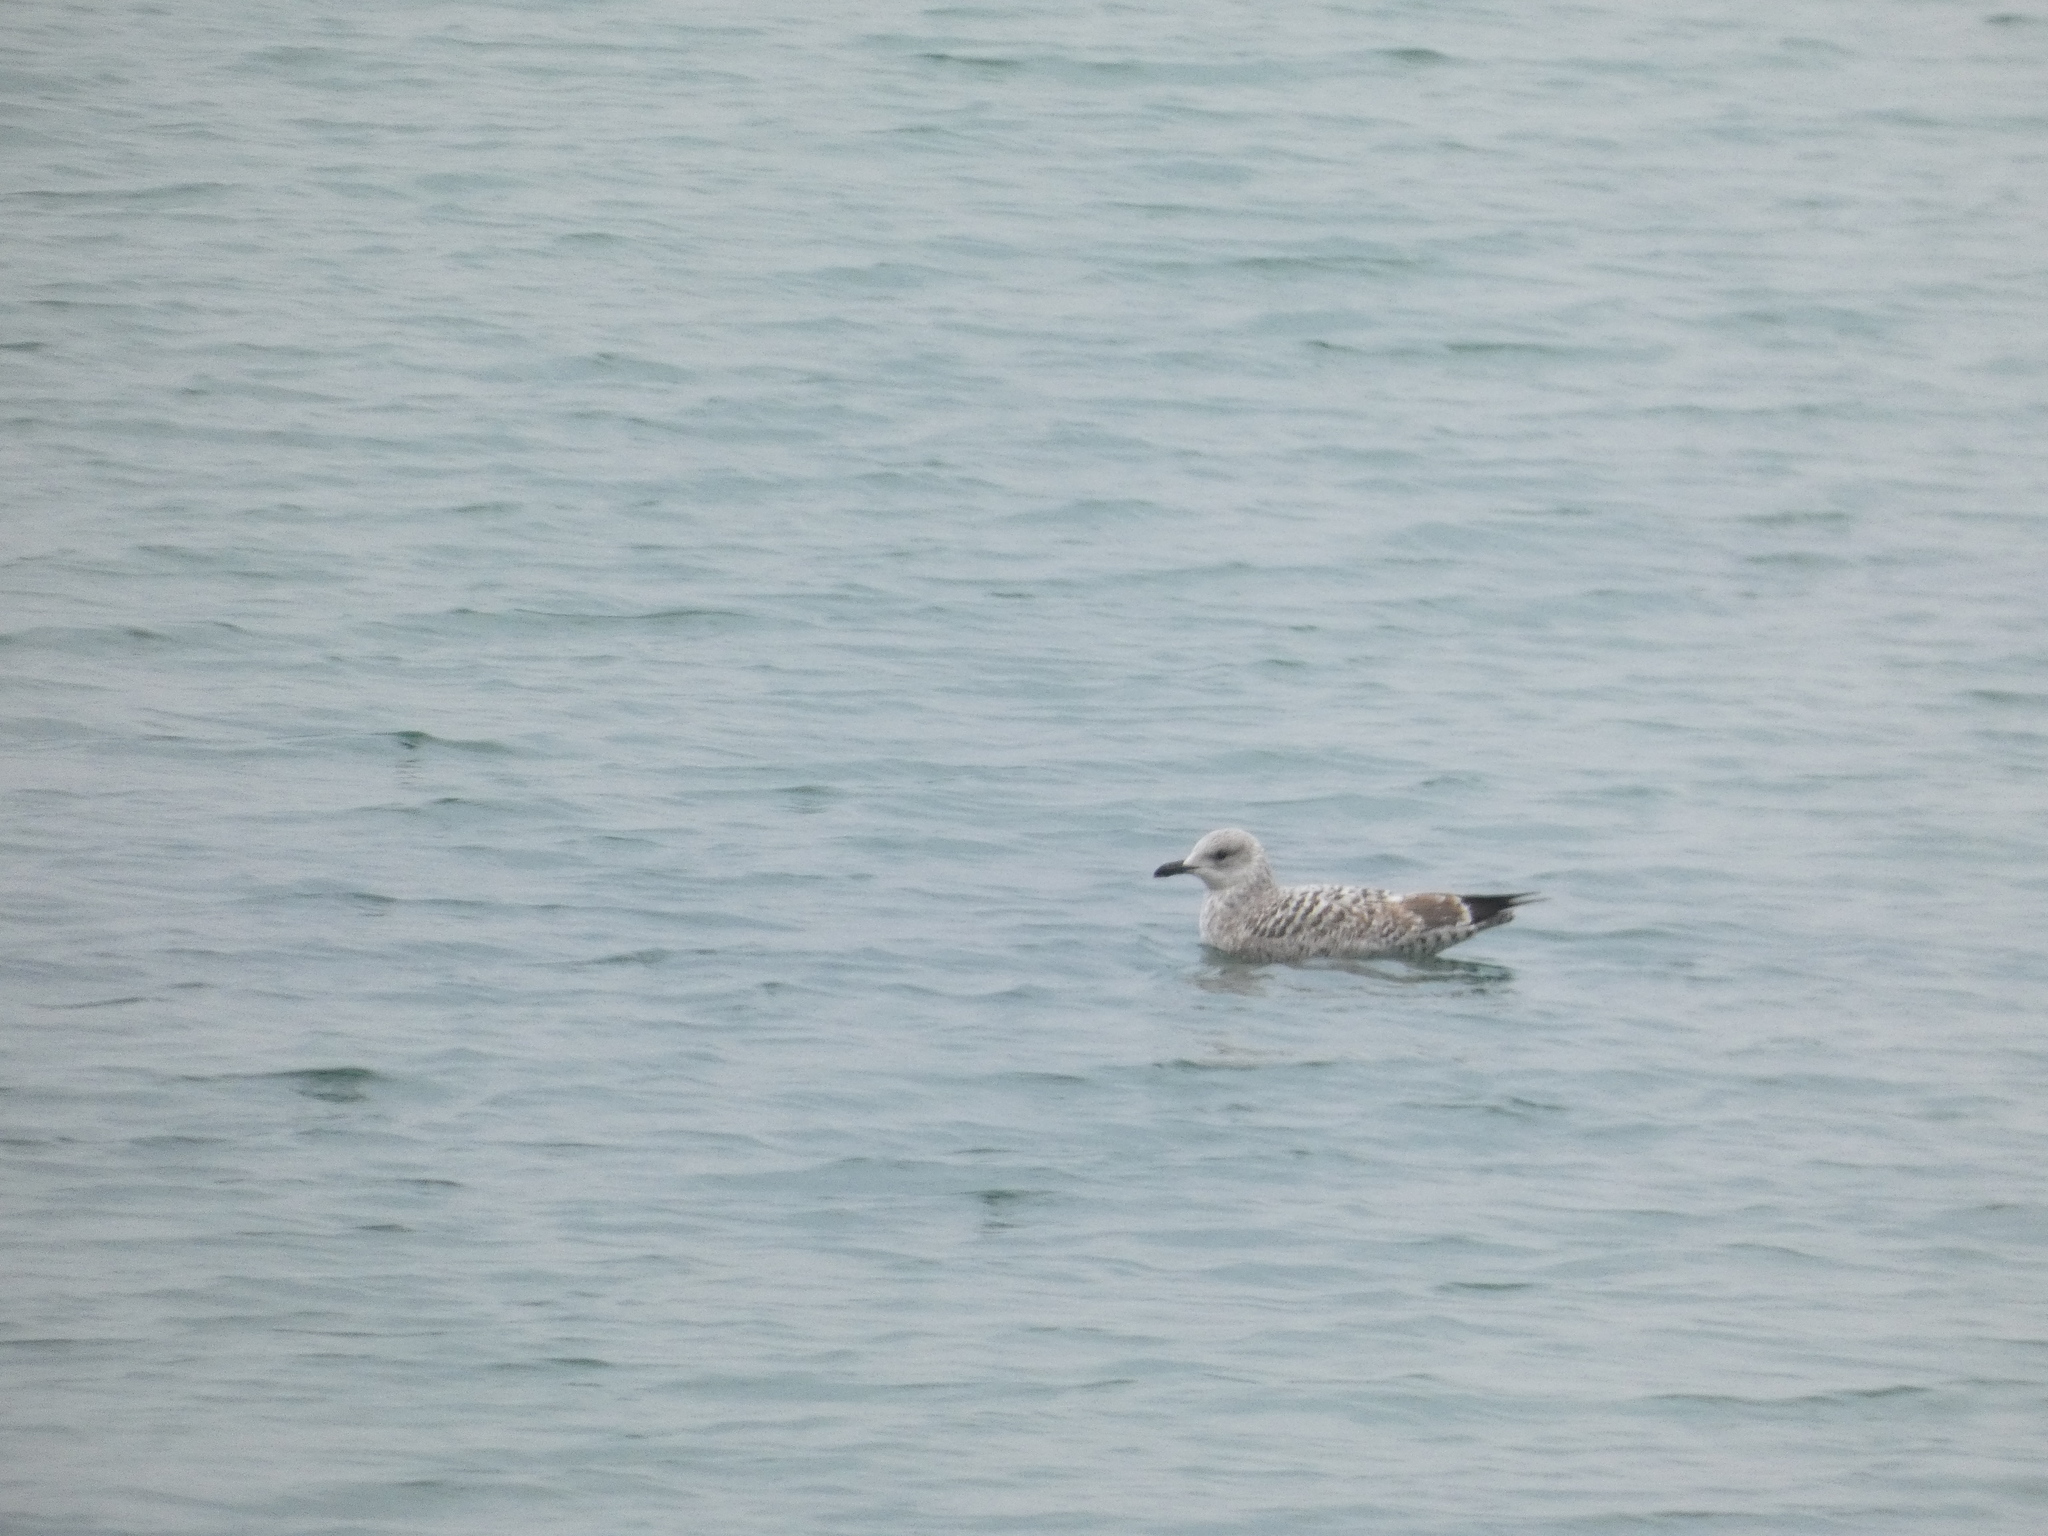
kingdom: Animalia
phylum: Chordata
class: Aves
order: Charadriiformes
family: Laridae
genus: Larus
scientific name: Larus argentatus
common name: Herring gull
